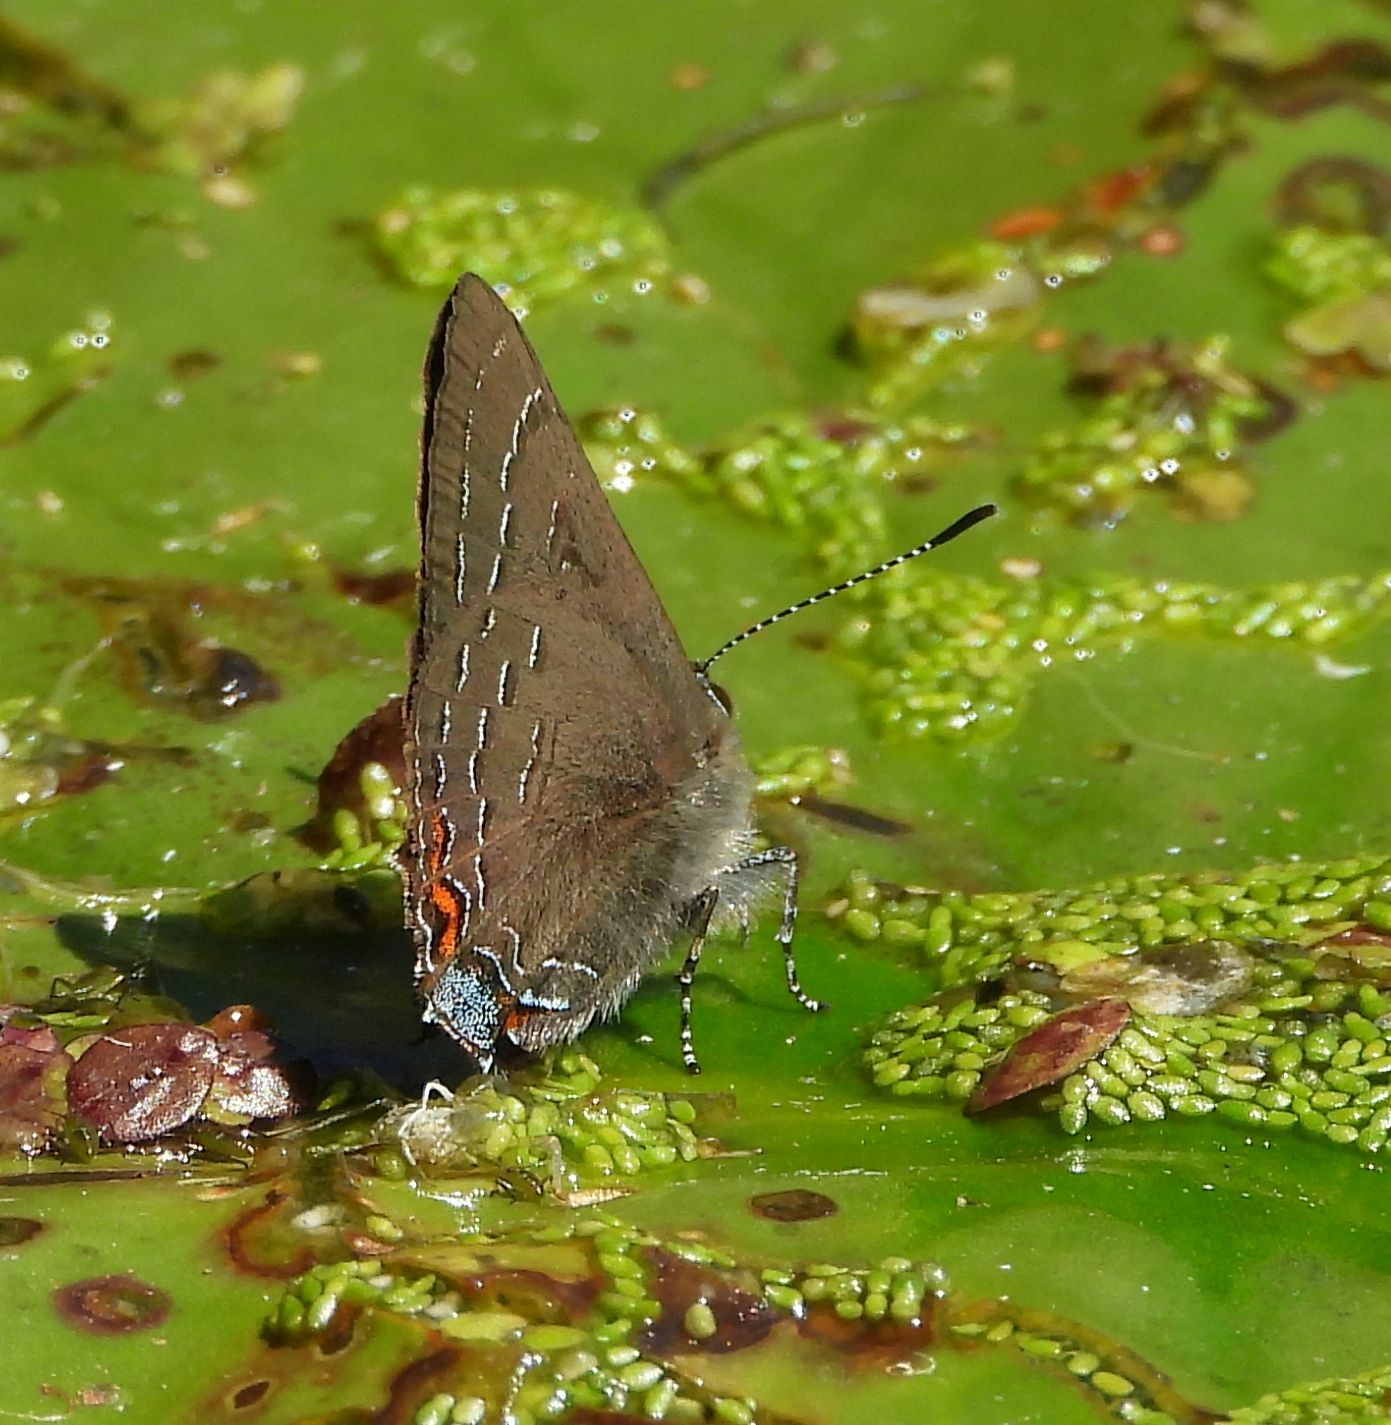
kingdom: Animalia
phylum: Arthropoda
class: Insecta
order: Lepidoptera
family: Lycaenidae
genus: Satyrium
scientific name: Satyrium calanus
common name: Banded hairstreak
